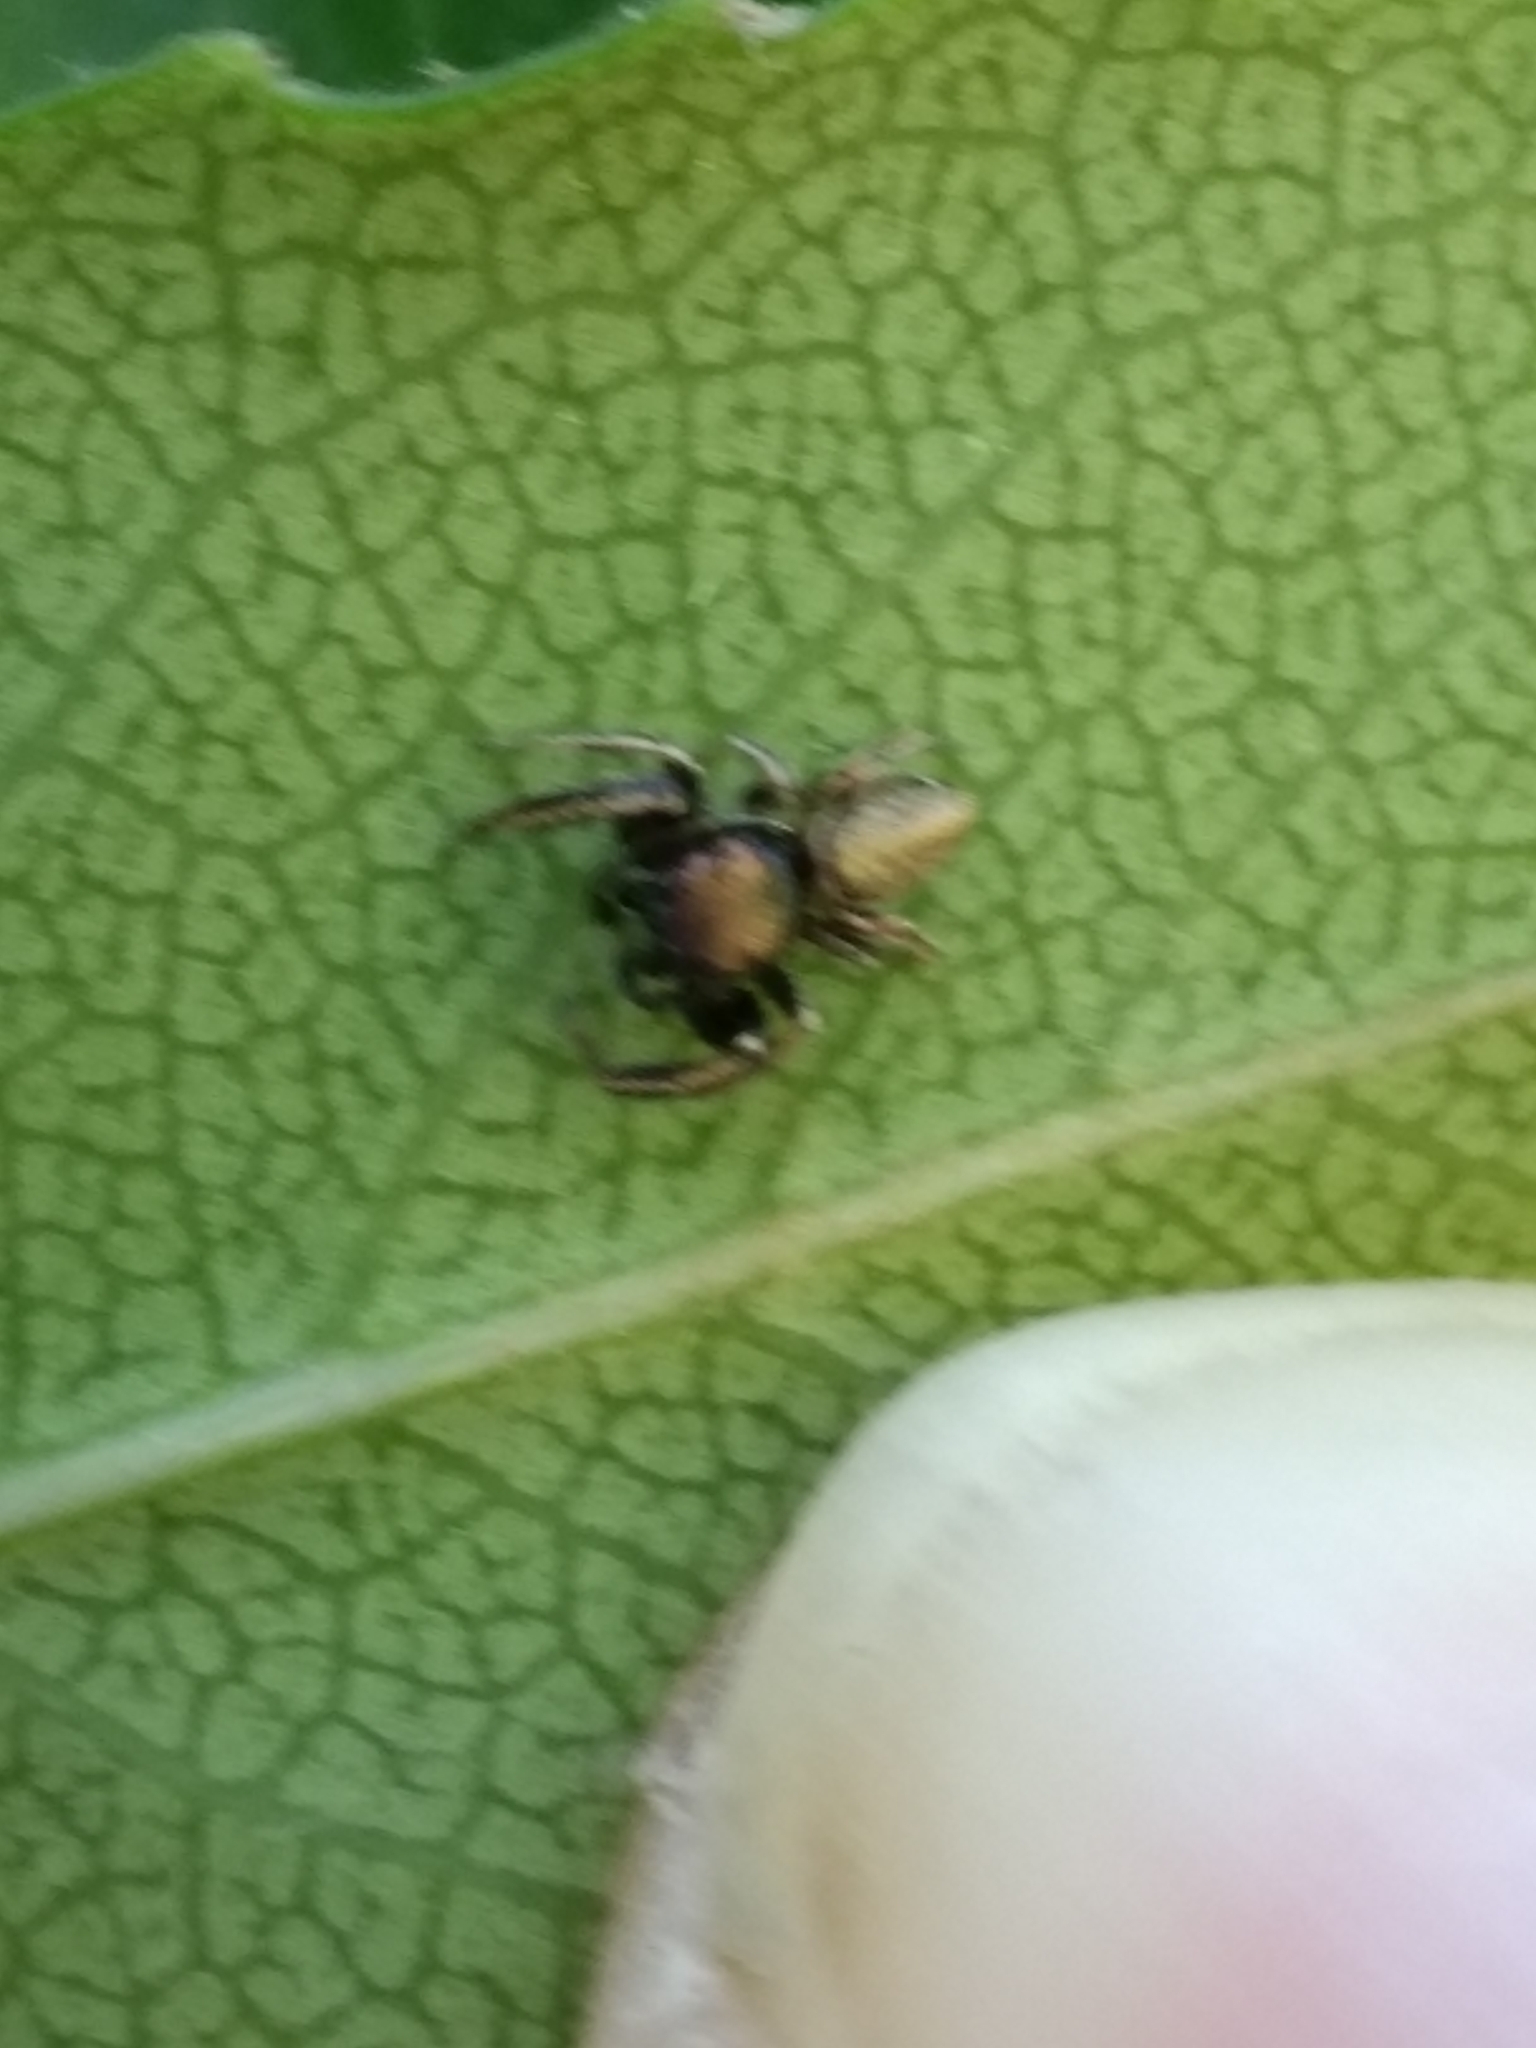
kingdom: Animalia
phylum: Arthropoda
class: Arachnida
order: Araneae
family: Salticidae
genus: Sassacus
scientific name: Sassacus vitis
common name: Jumping spiders
